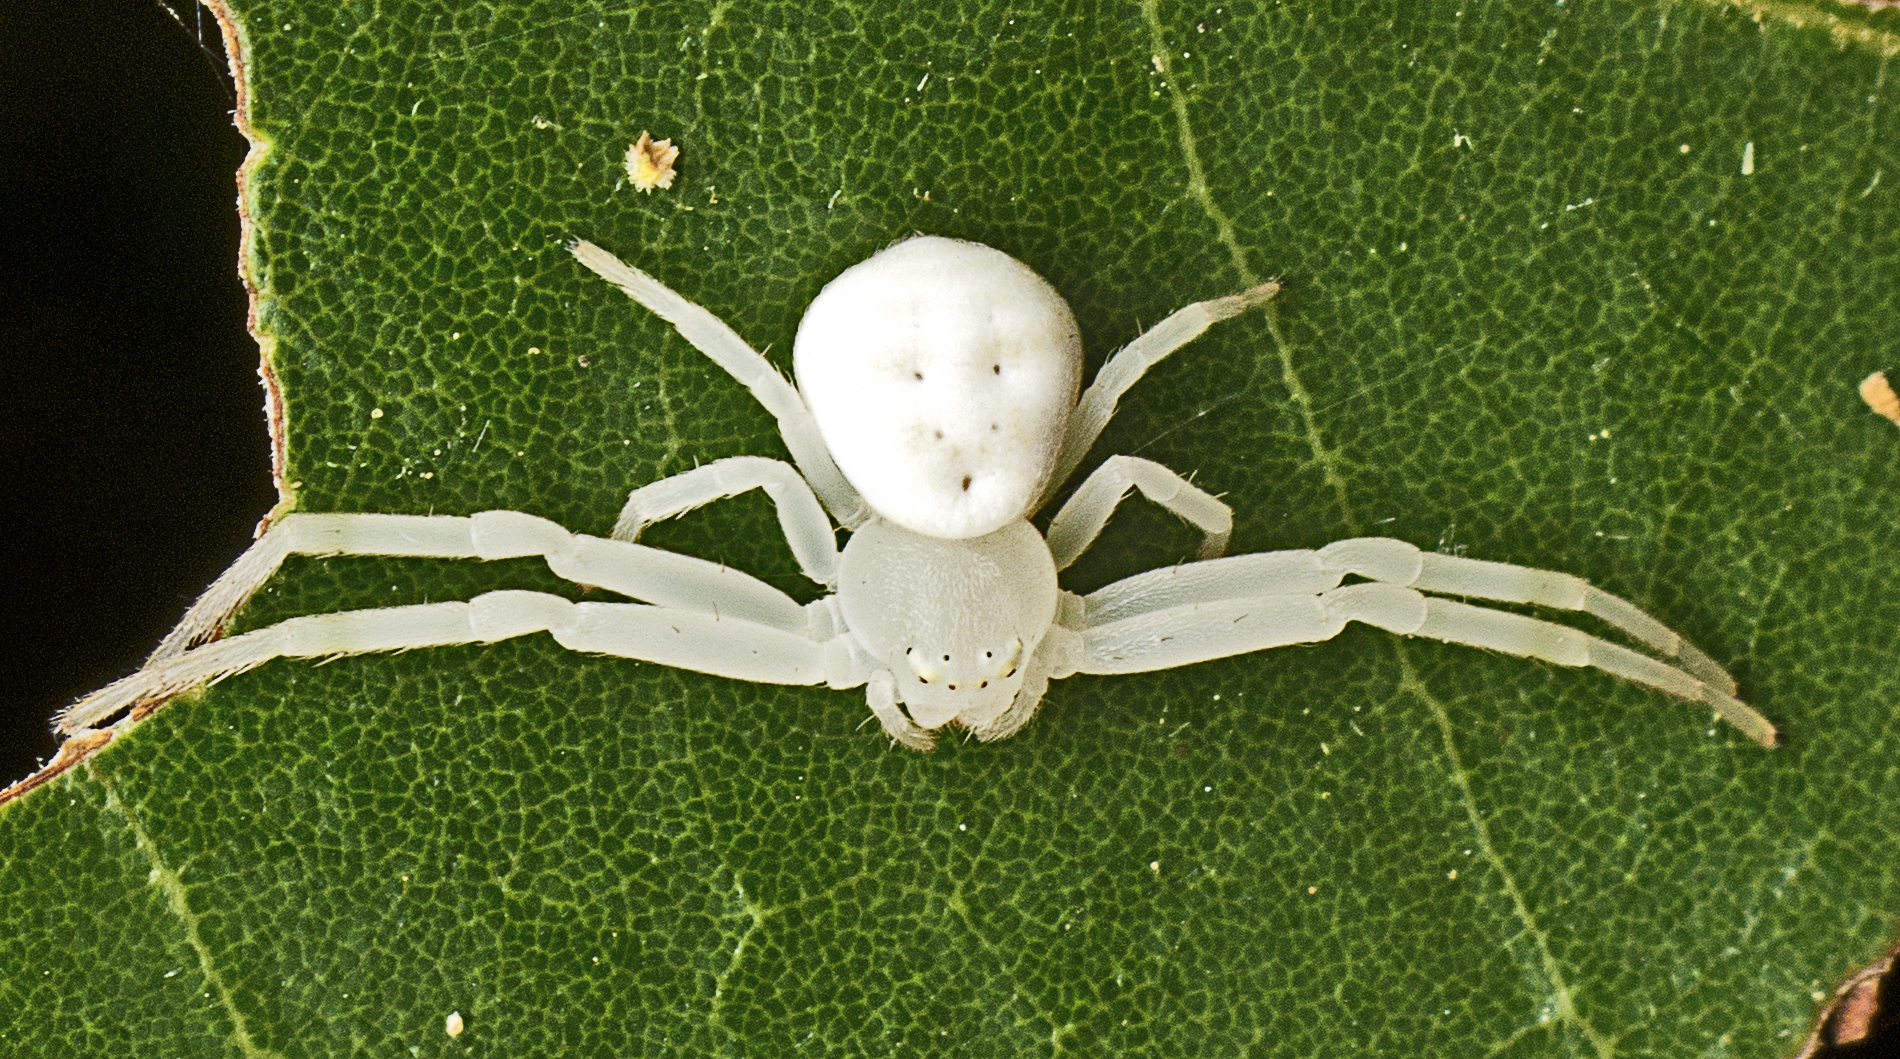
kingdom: Animalia
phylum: Arthropoda
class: Arachnida
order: Araneae
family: Thomisidae
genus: Zygometis
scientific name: Zygometis xanthogaster
